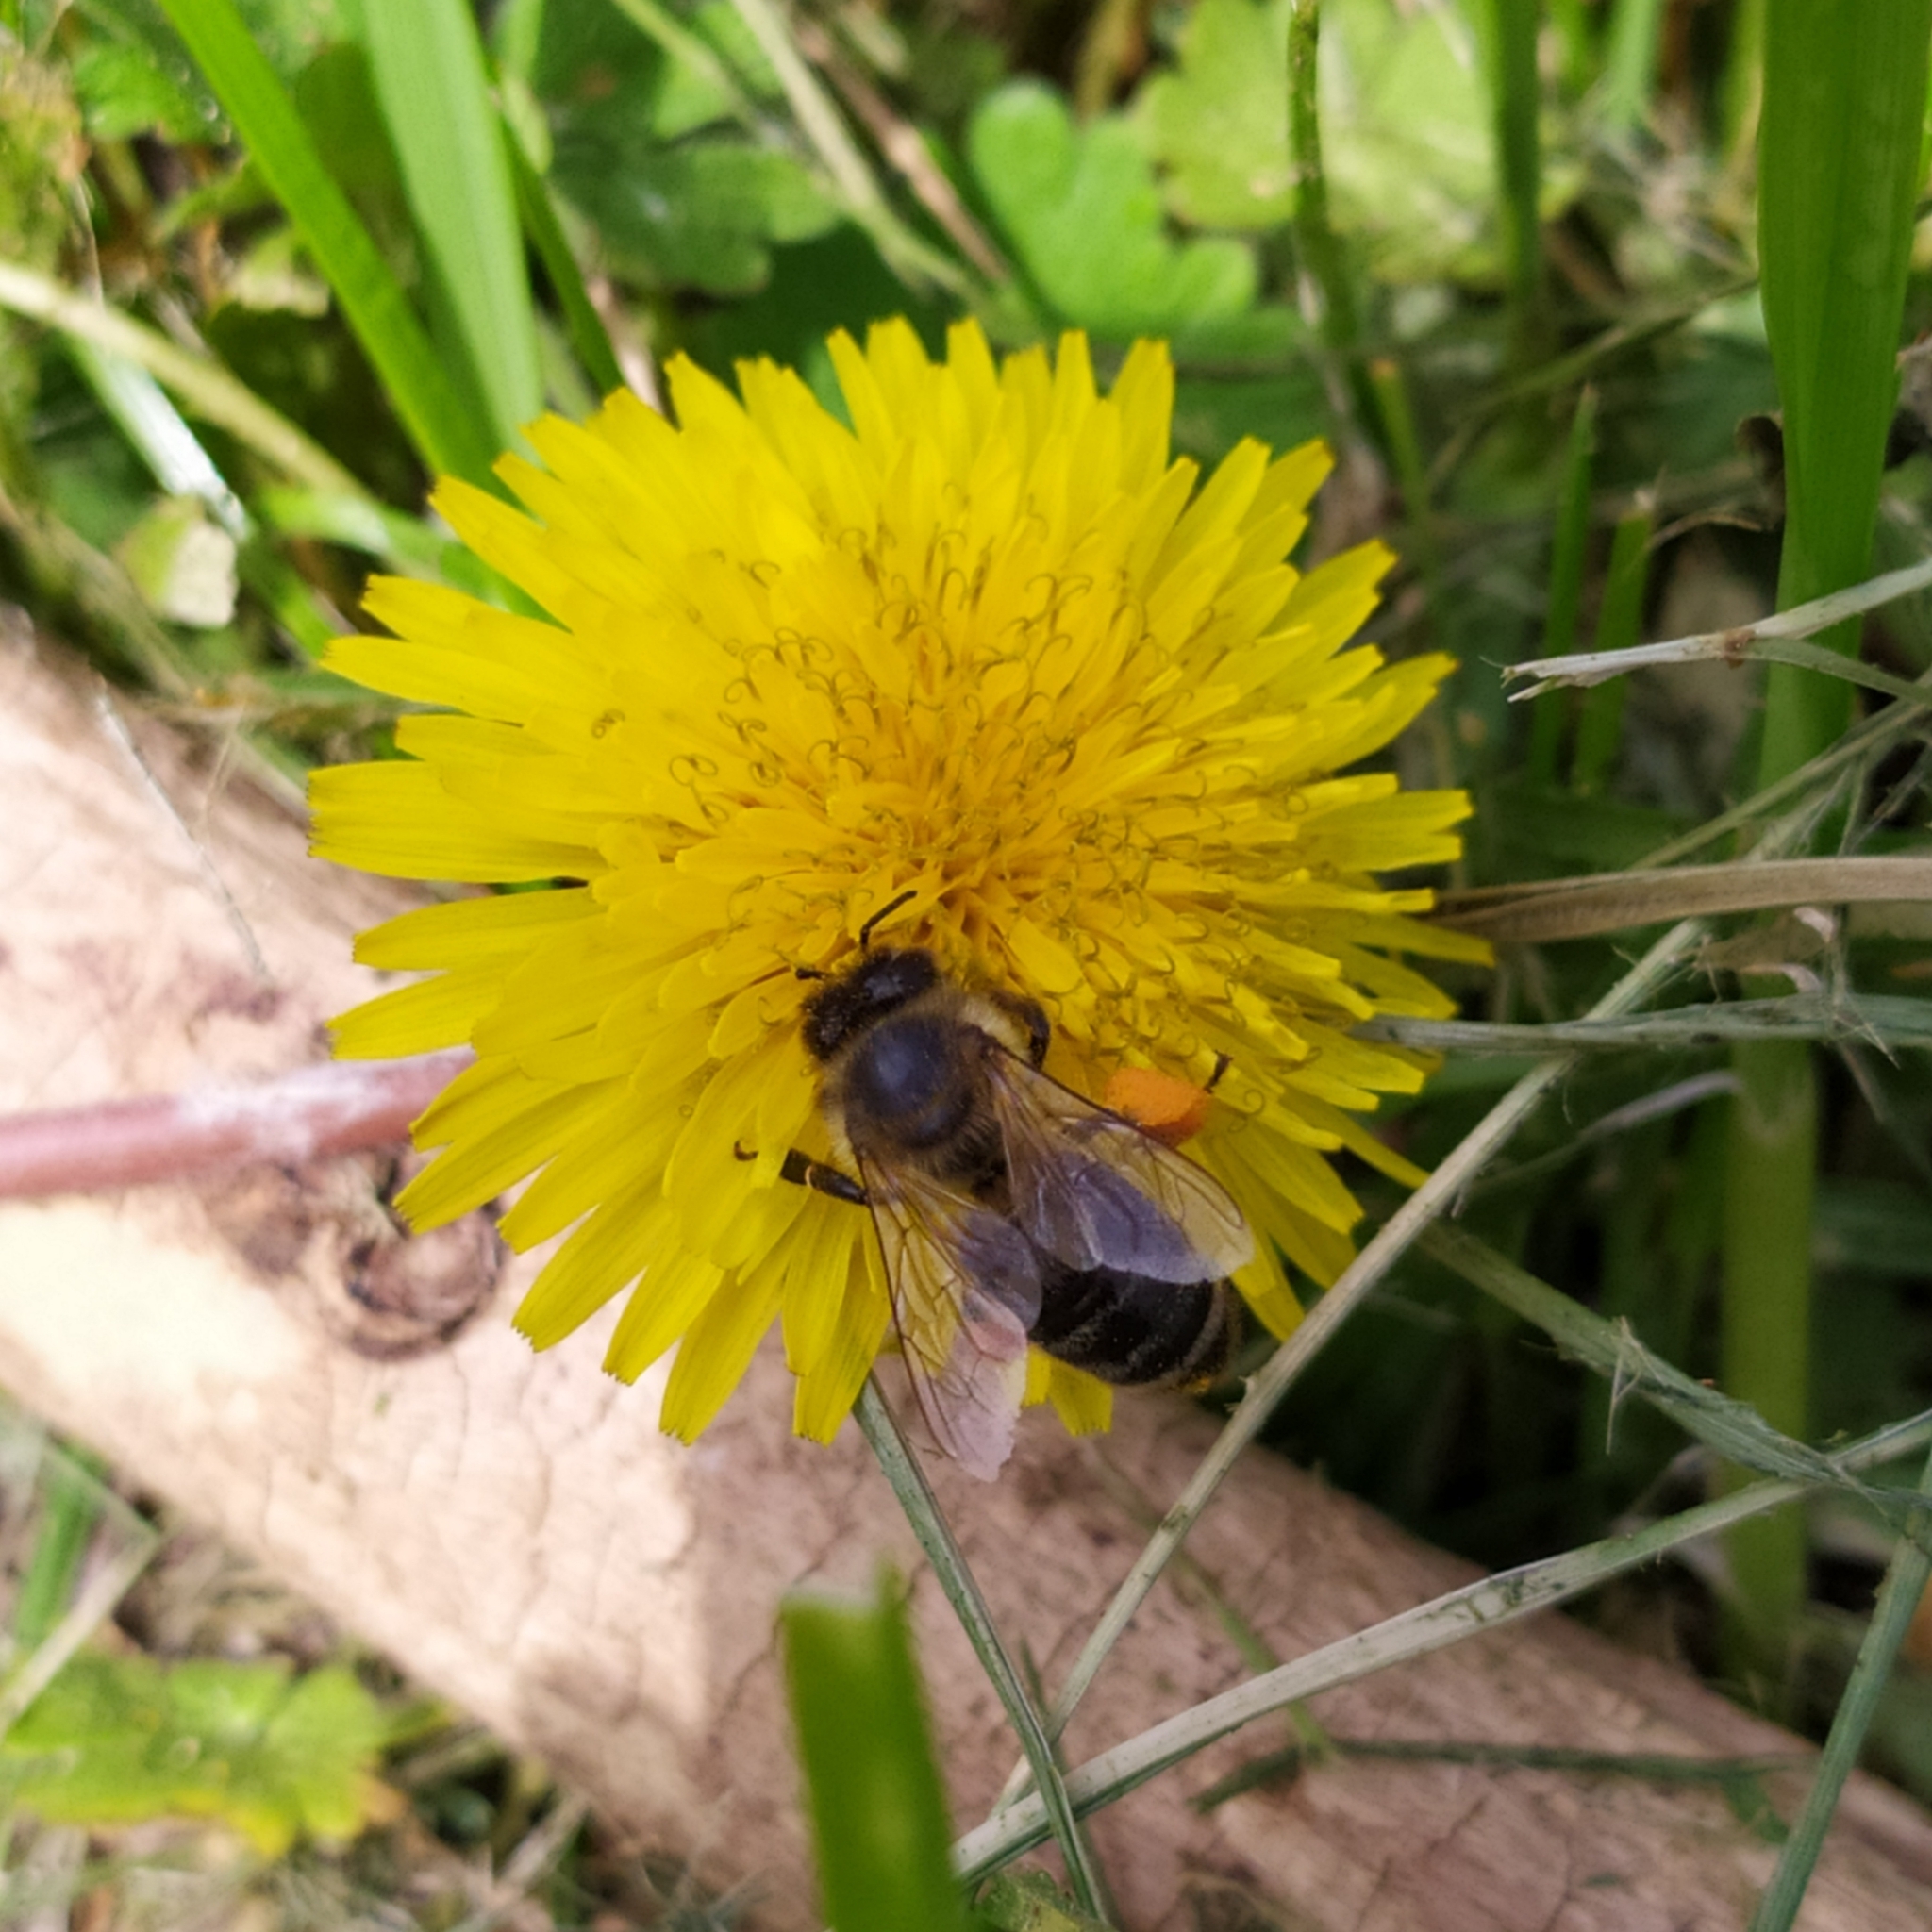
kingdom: Animalia
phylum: Arthropoda
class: Insecta
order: Hymenoptera
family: Apidae
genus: Apis
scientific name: Apis mellifera
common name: Honey bee
